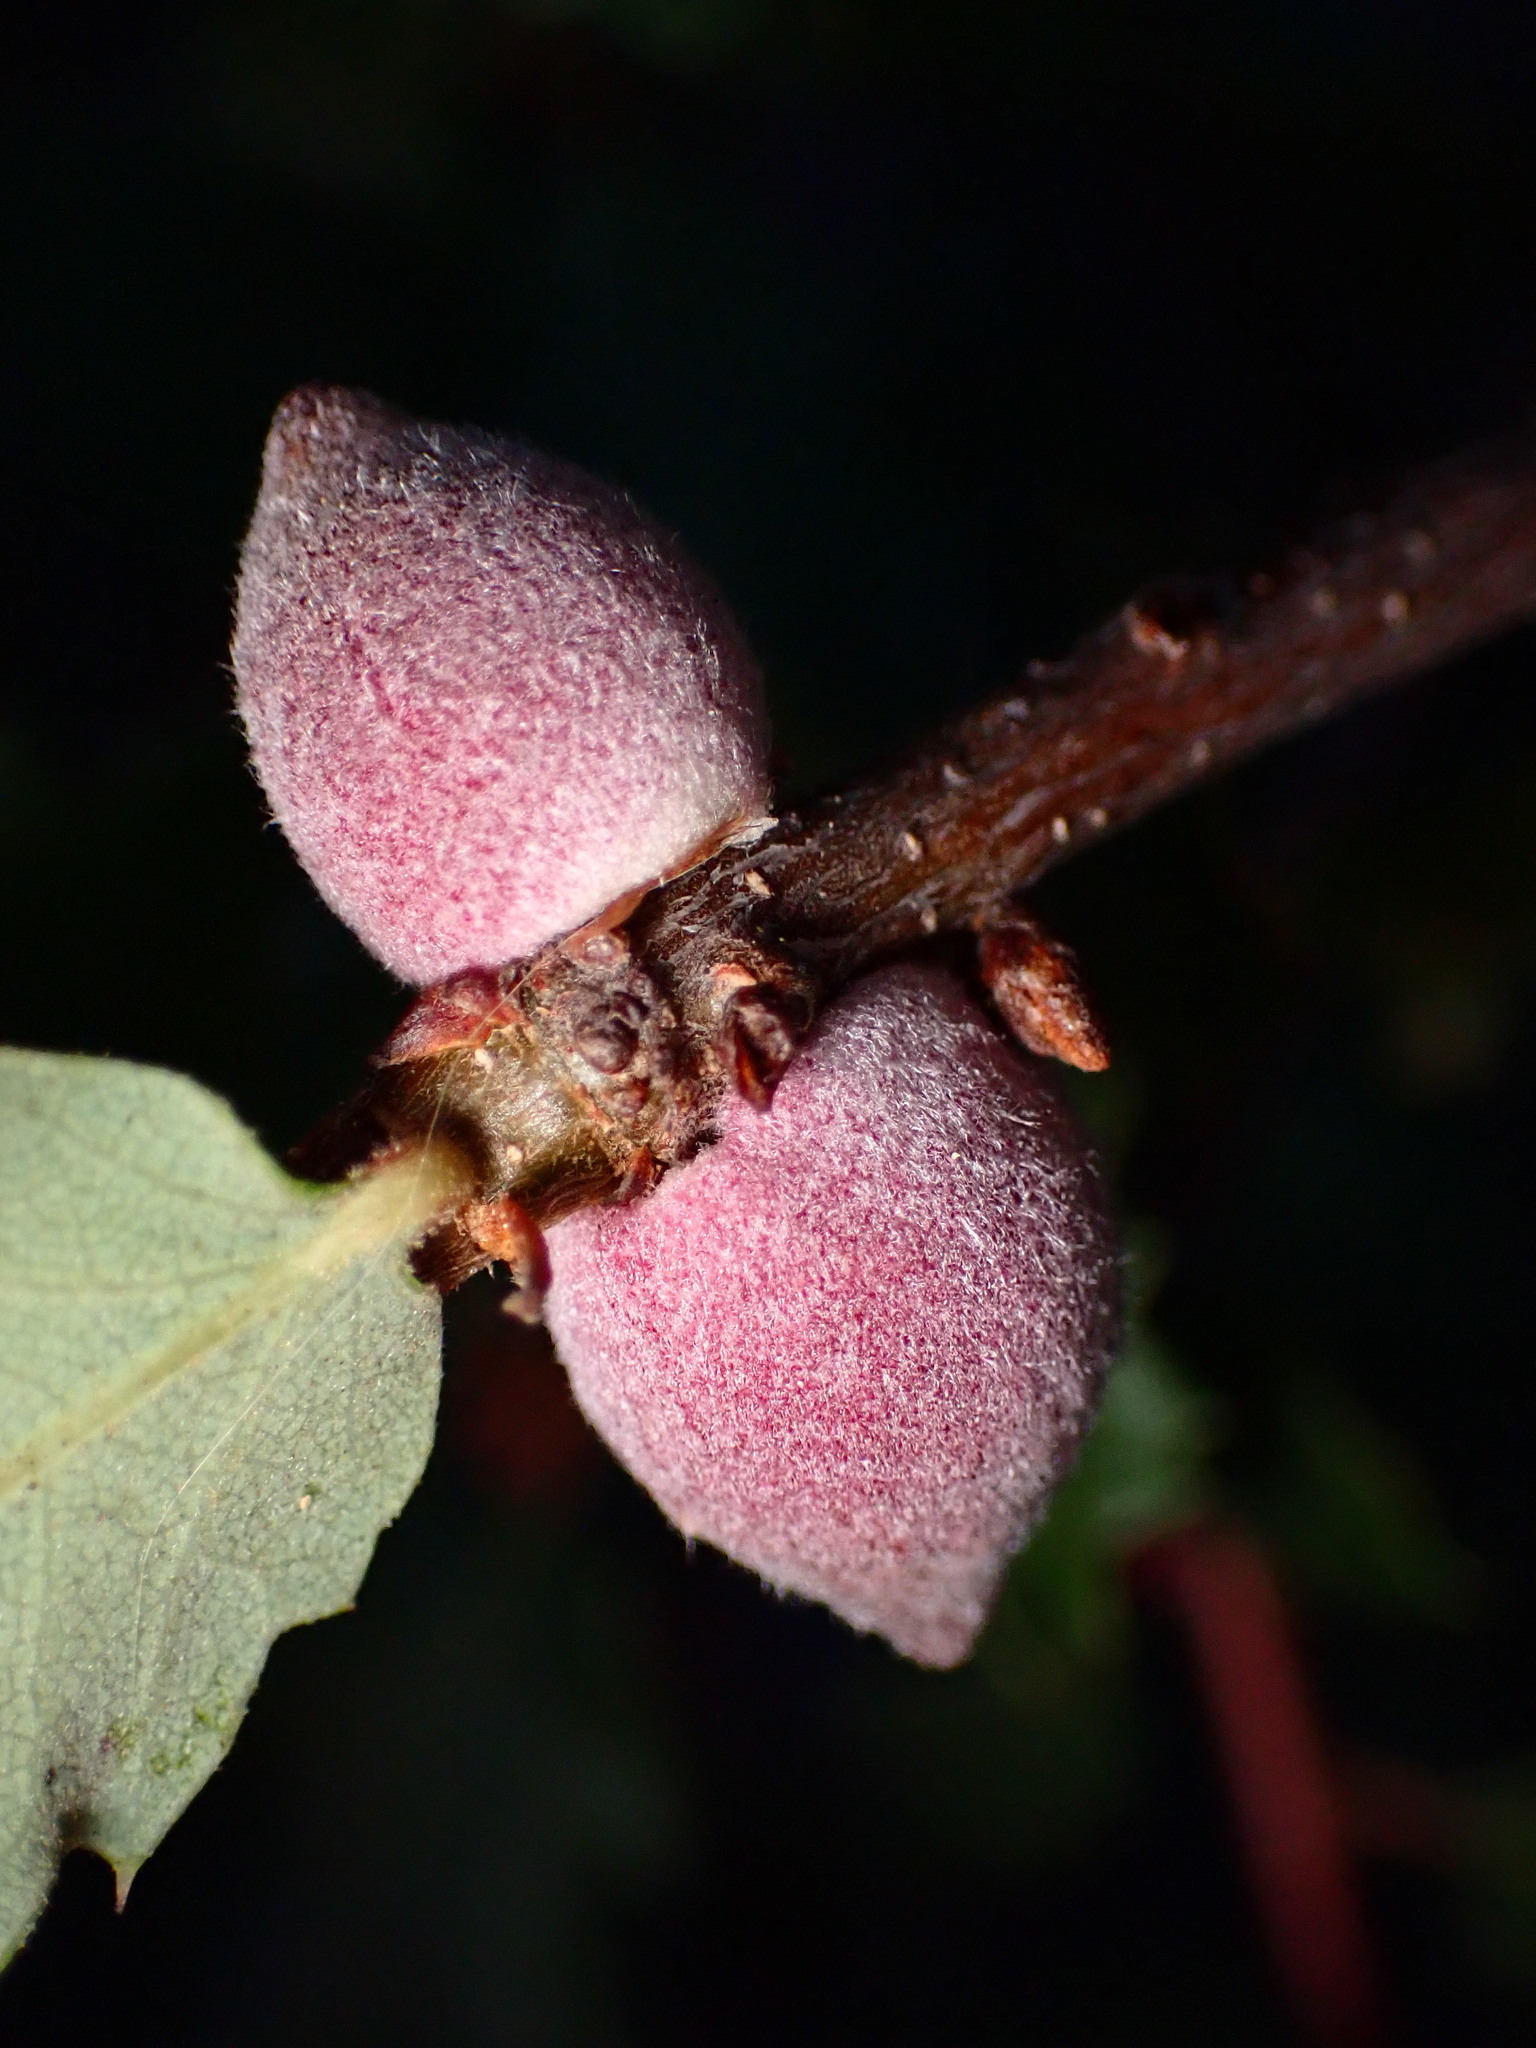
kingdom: Animalia
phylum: Arthropoda
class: Insecta
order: Hymenoptera
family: Cynipidae
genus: Disholcaspis
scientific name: Disholcaspis
